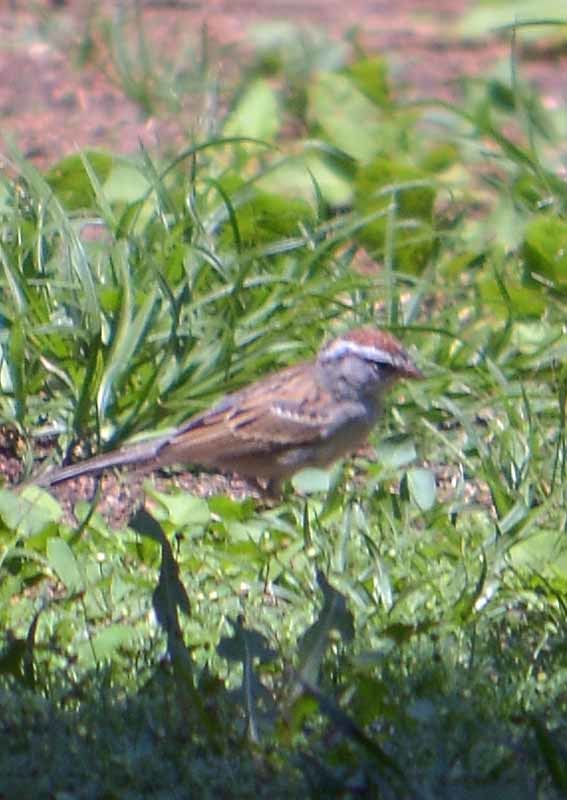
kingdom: Animalia
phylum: Chordata
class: Aves
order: Passeriformes
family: Passerellidae
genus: Spizella
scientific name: Spizella passerina
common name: Chipping sparrow
